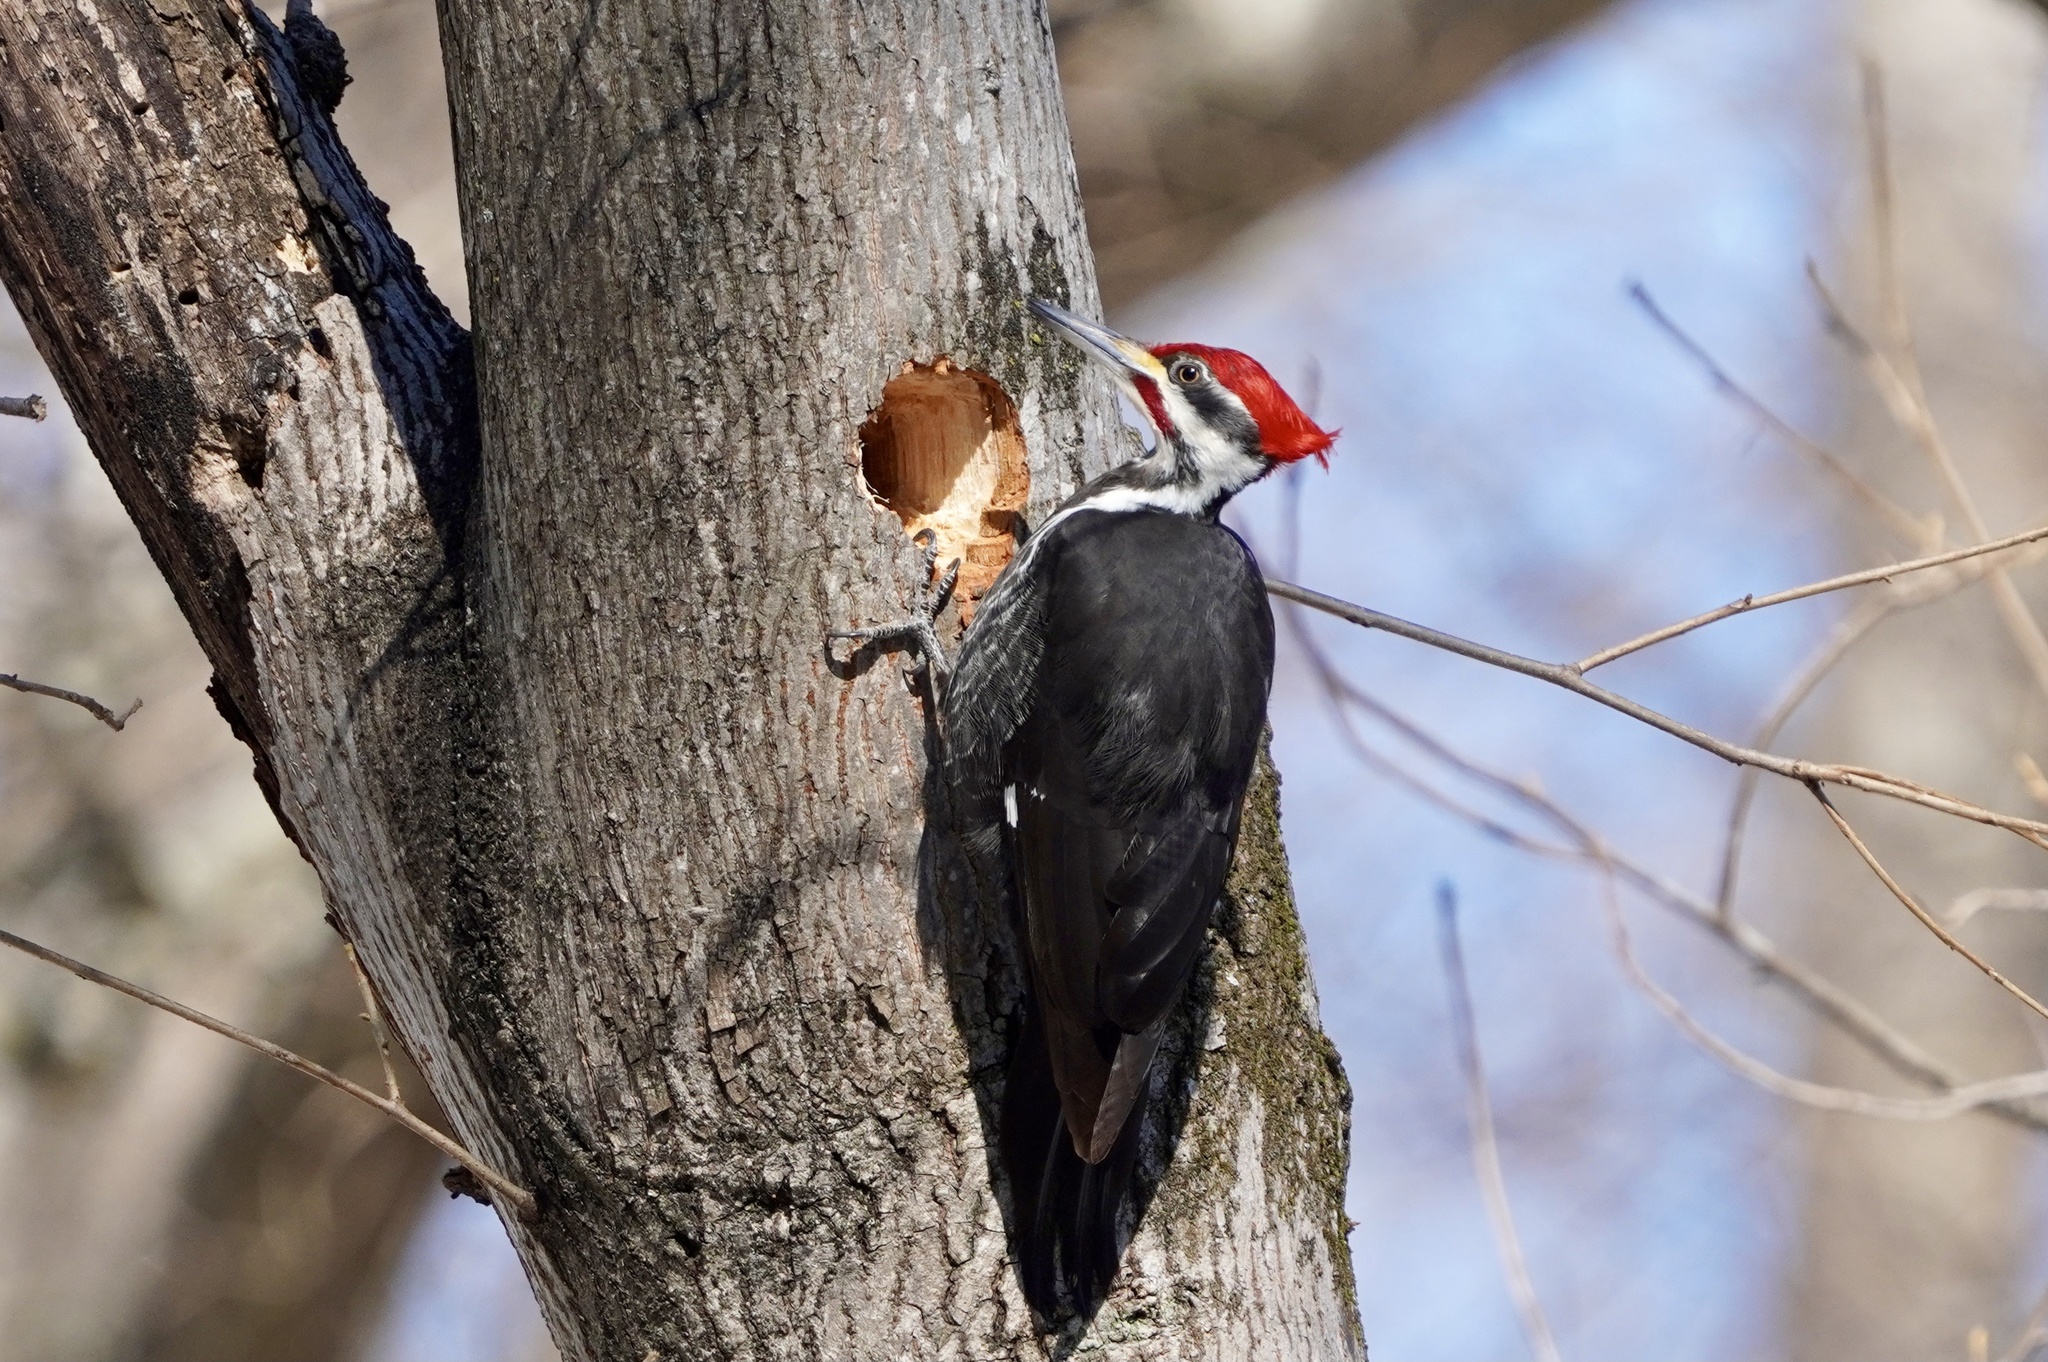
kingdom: Animalia
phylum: Chordata
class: Aves
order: Piciformes
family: Picidae
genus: Dryocopus
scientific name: Dryocopus pileatus
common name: Pileated woodpecker
